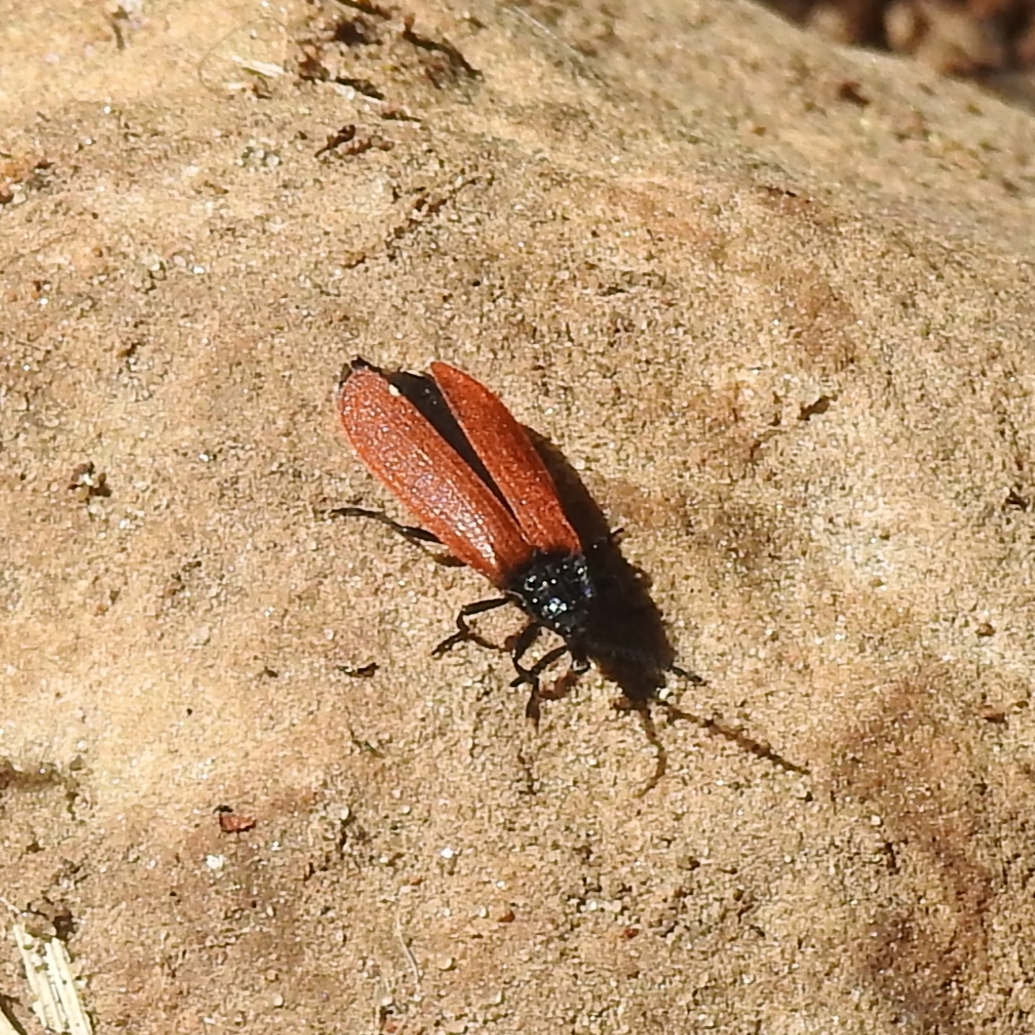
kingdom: Animalia
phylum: Arthropoda
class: Insecta
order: Coleoptera
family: Lycidae
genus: Macrolygistopterus
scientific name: Macrolygistopterus
